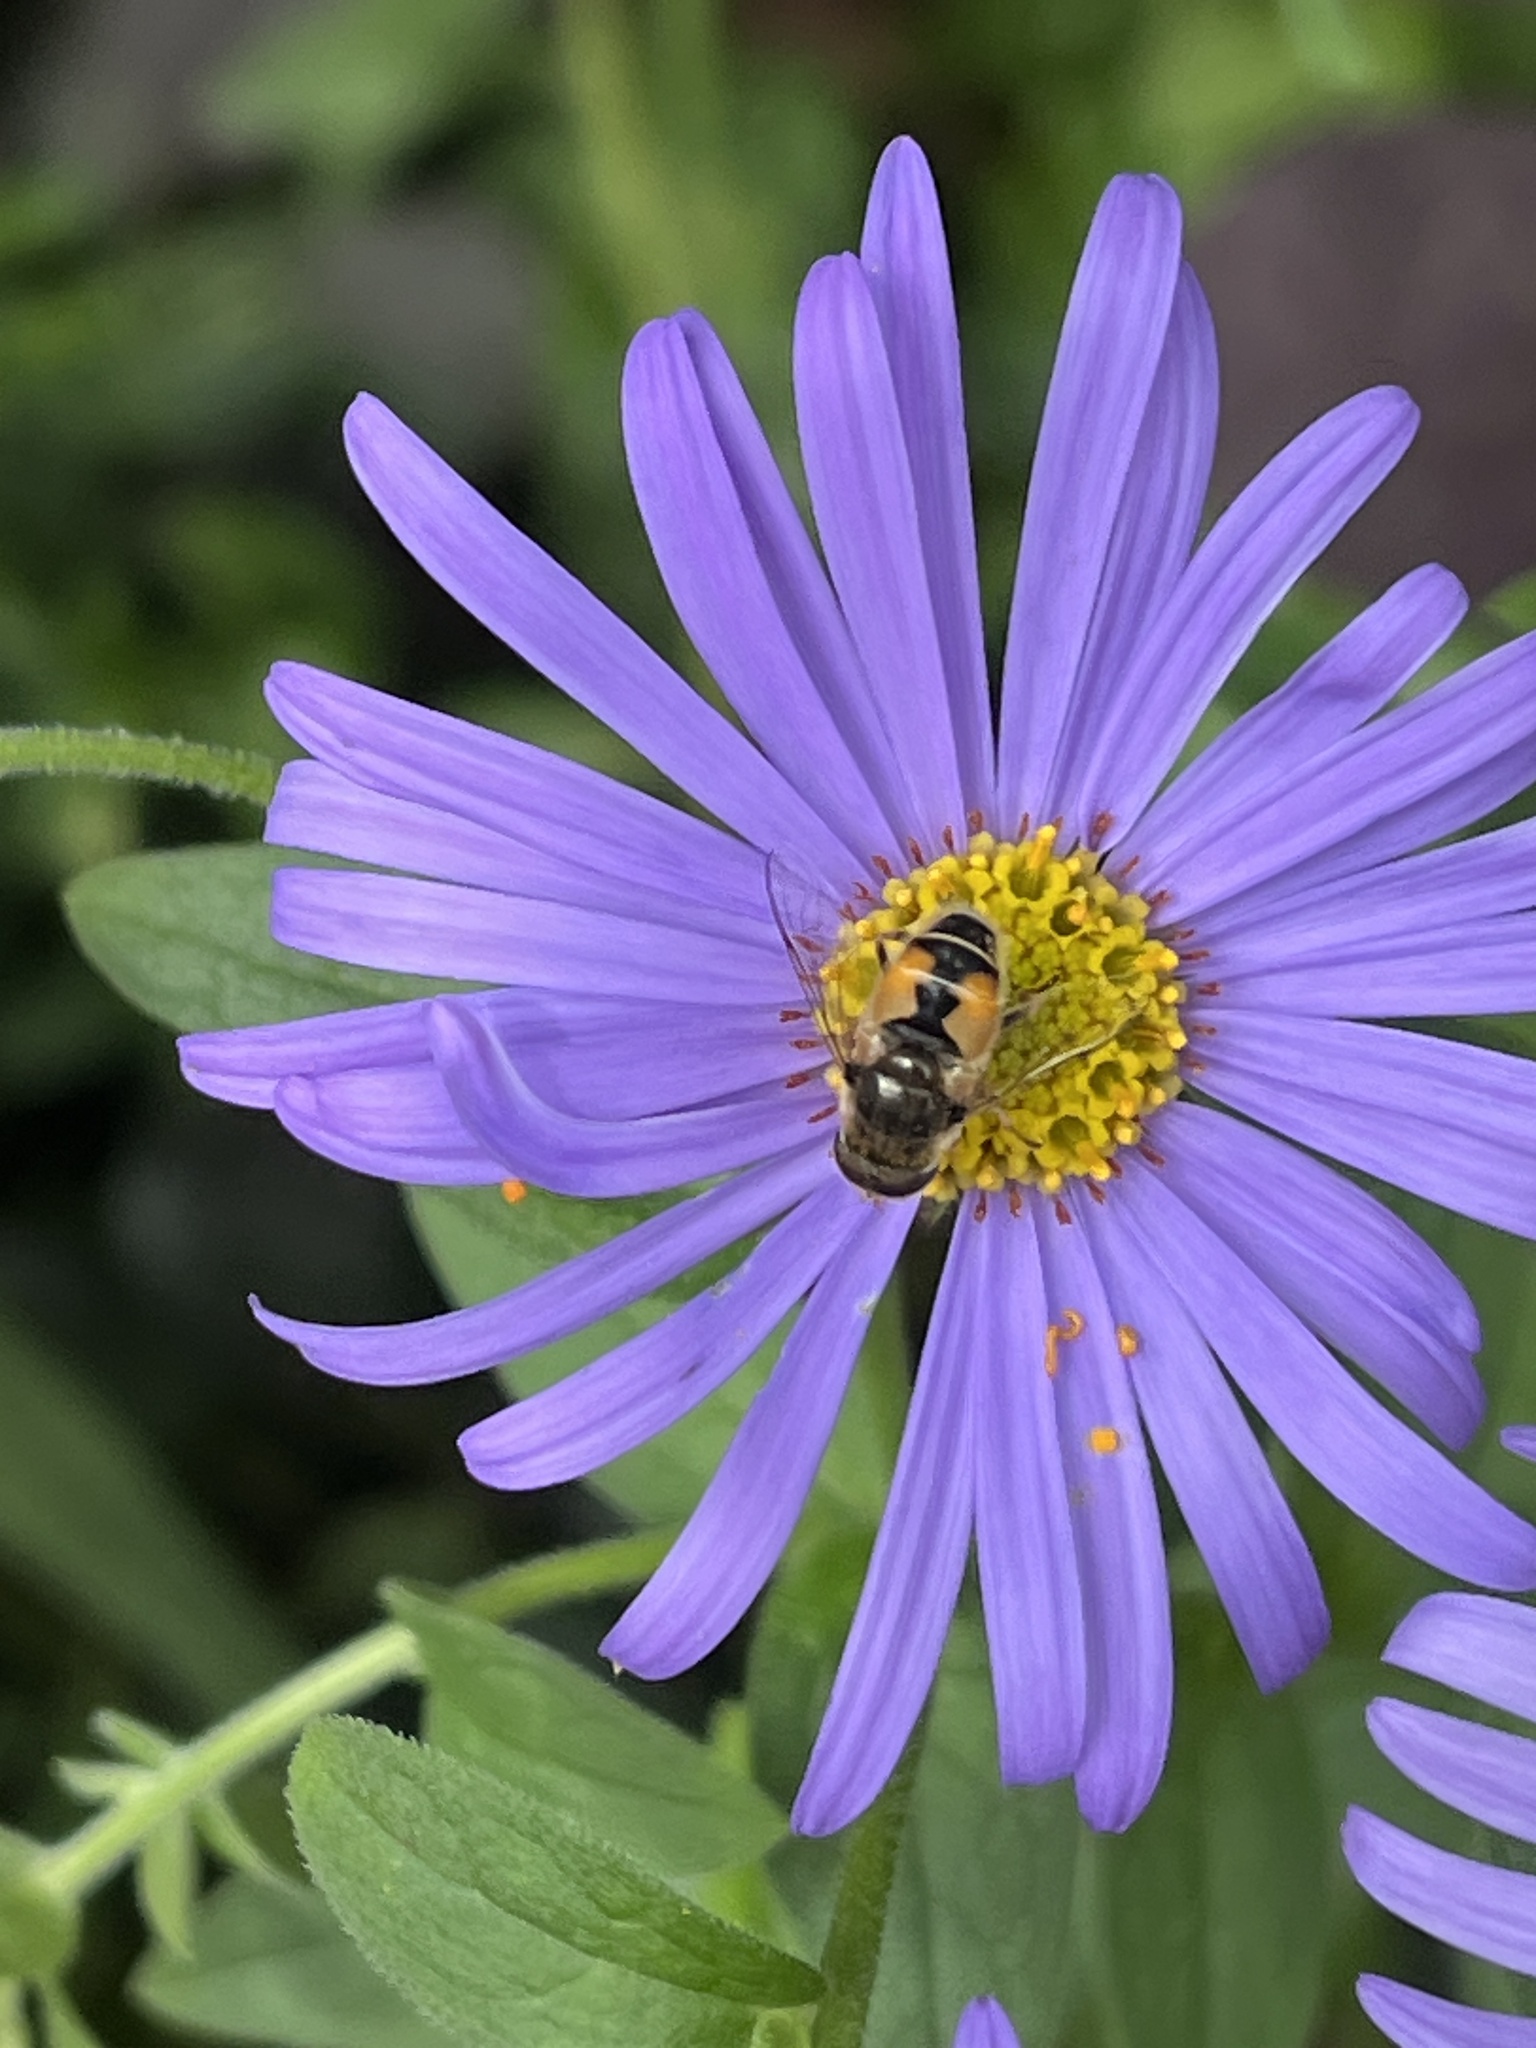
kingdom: Animalia
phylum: Arthropoda
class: Insecta
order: Diptera
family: Syrphidae
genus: Eristalis
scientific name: Eristalis arbustorum
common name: Hover fly
